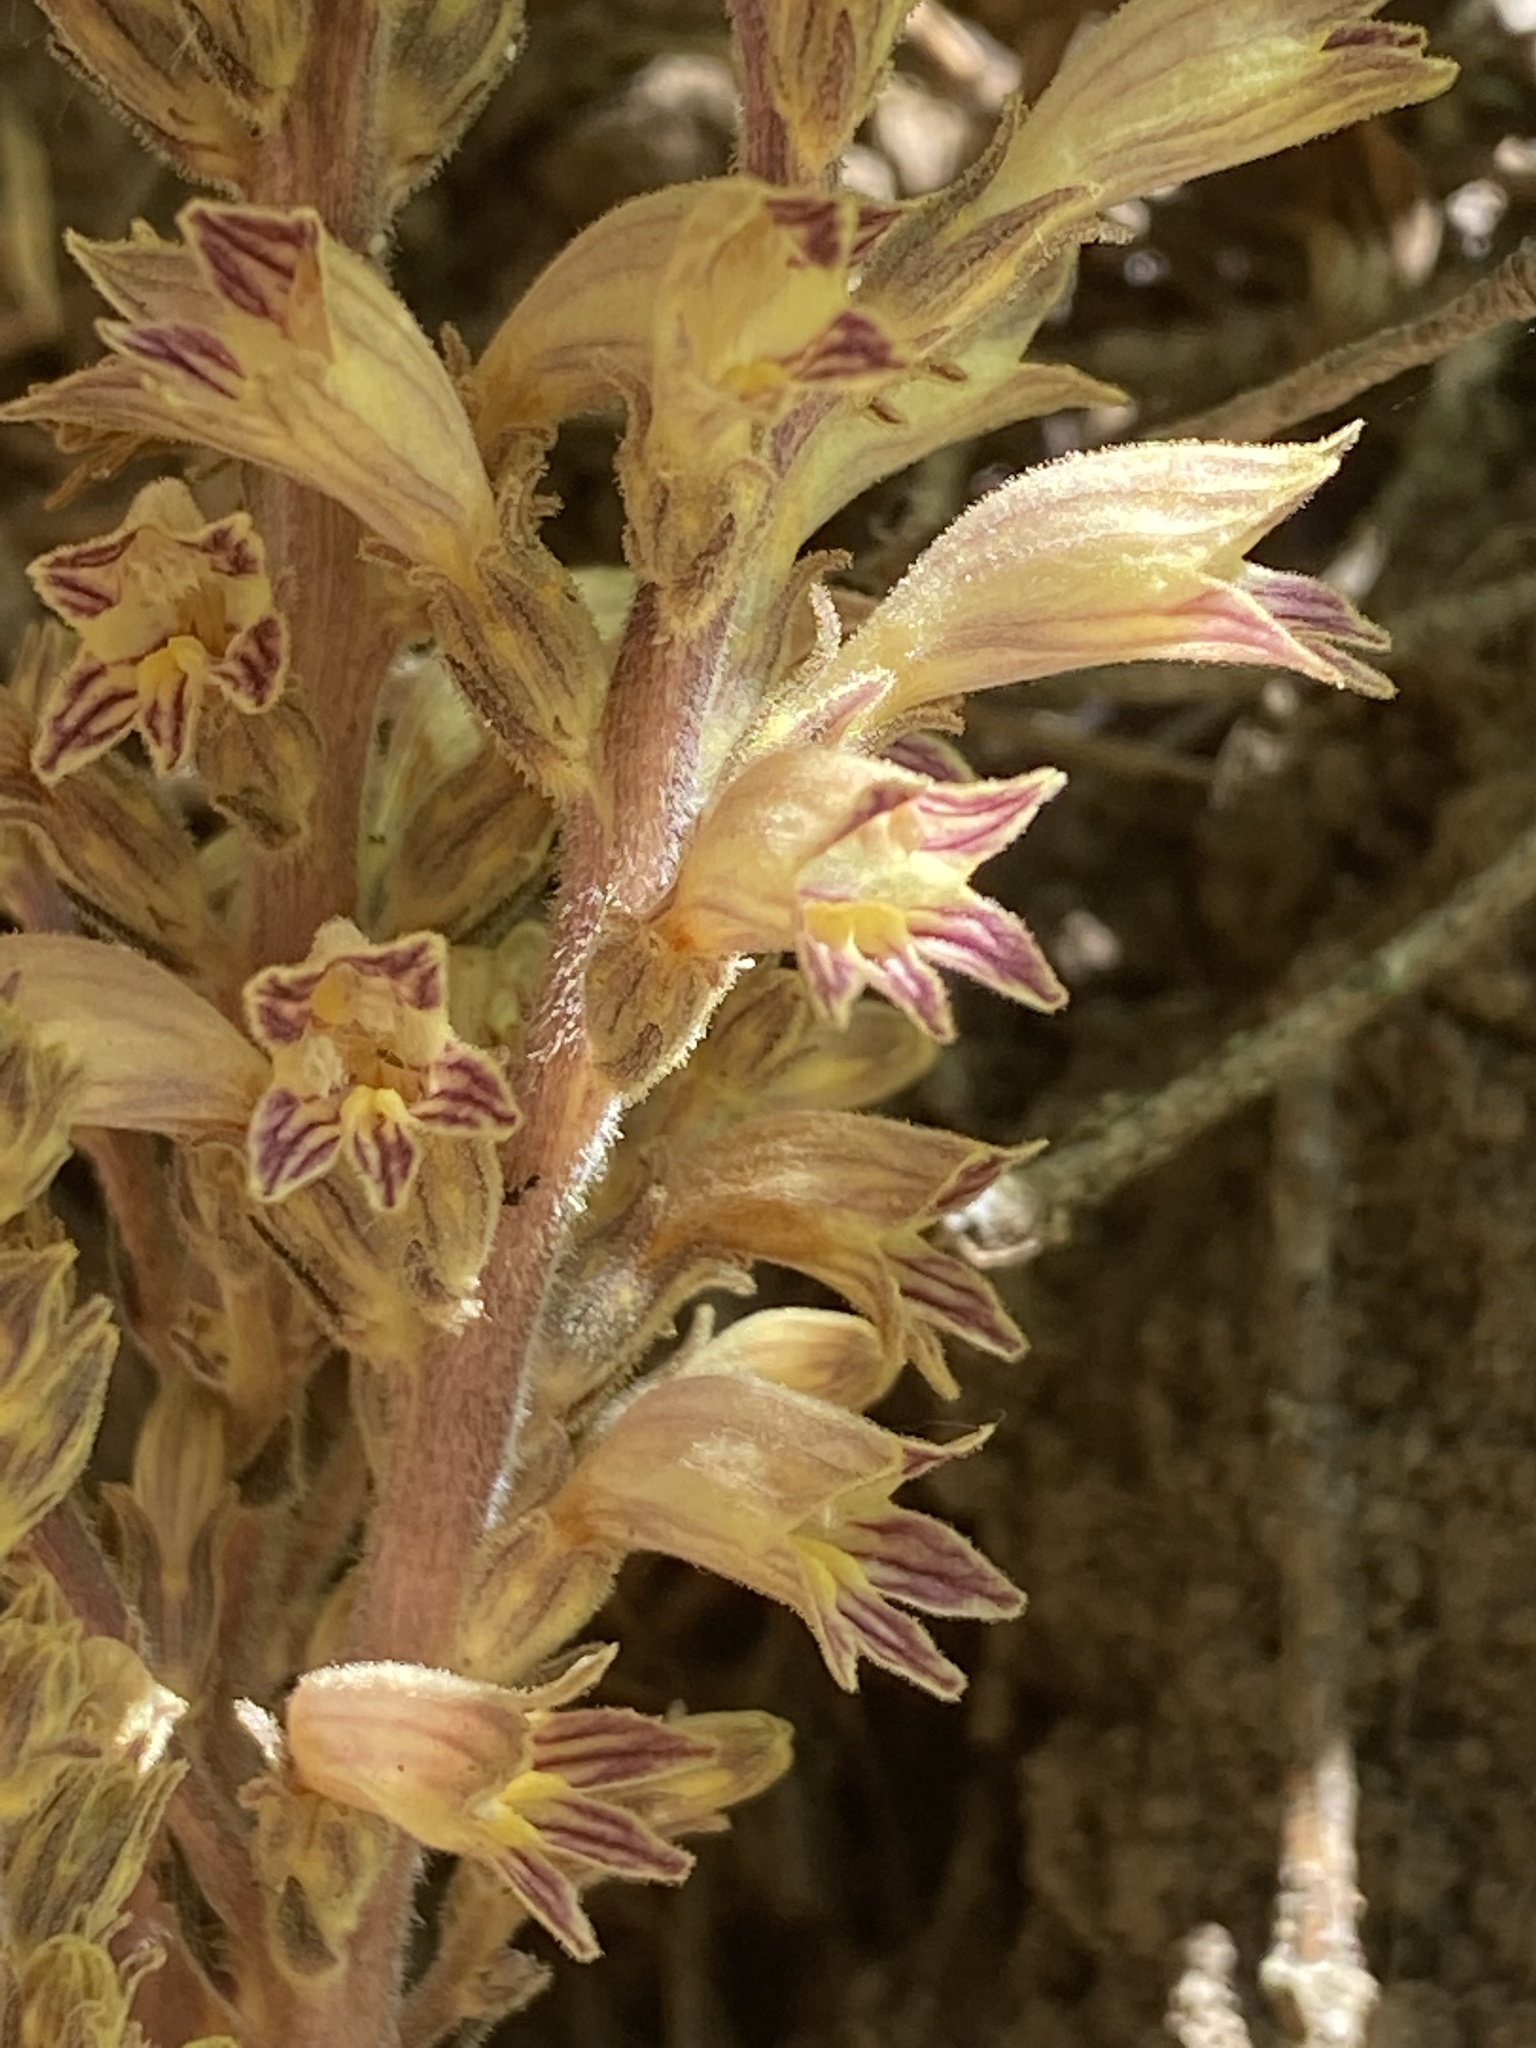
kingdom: Plantae
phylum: Tracheophyta
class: Magnoliopsida
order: Lamiales
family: Orobanchaceae
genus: Aphyllon
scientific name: Aphyllon pinorum
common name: Conifer broomrape
